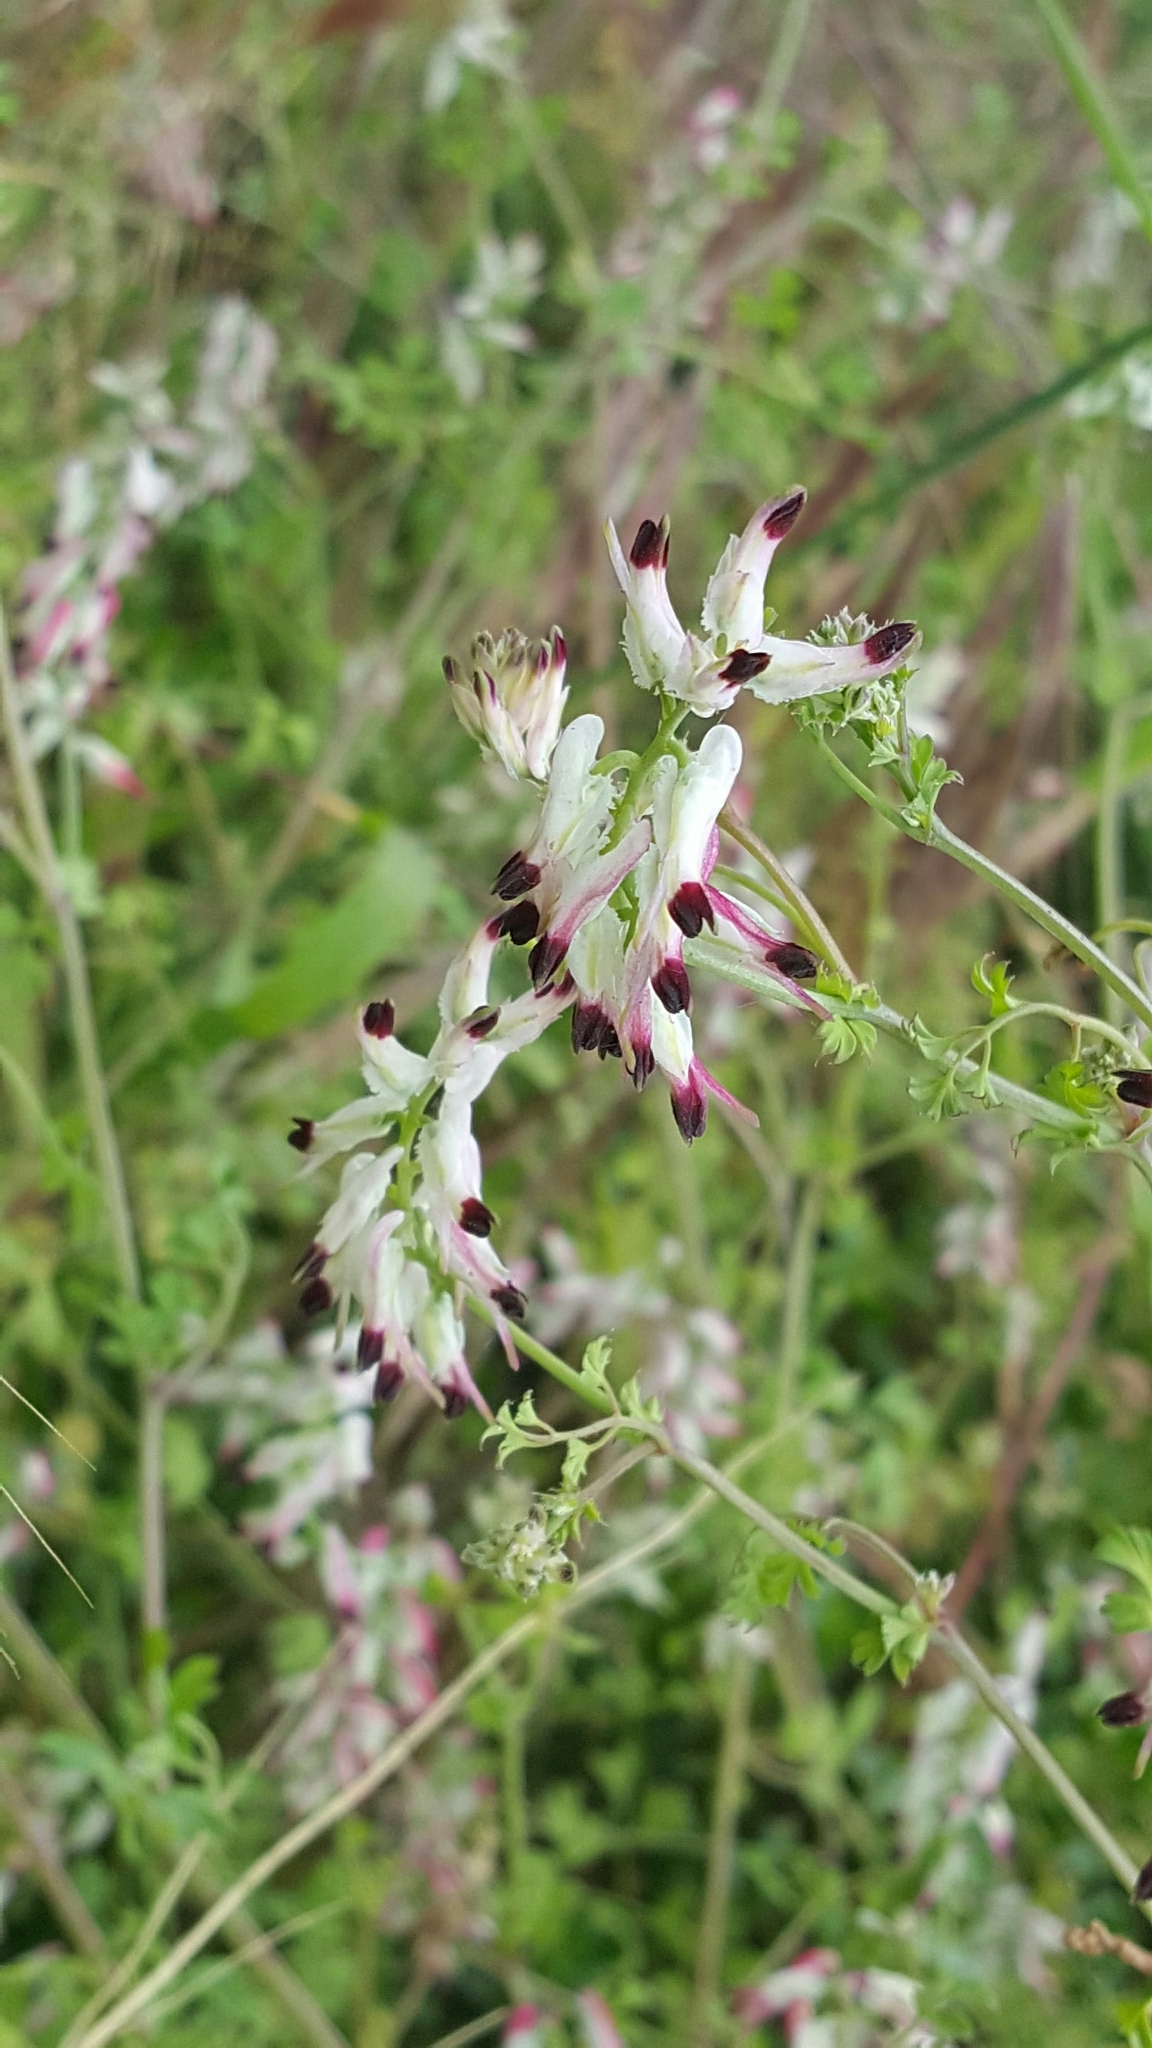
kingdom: Plantae
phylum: Tracheophyta
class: Magnoliopsida
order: Ranunculales
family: Papaveraceae
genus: Fumaria
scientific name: Fumaria capreolata
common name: White ramping-fumitory
